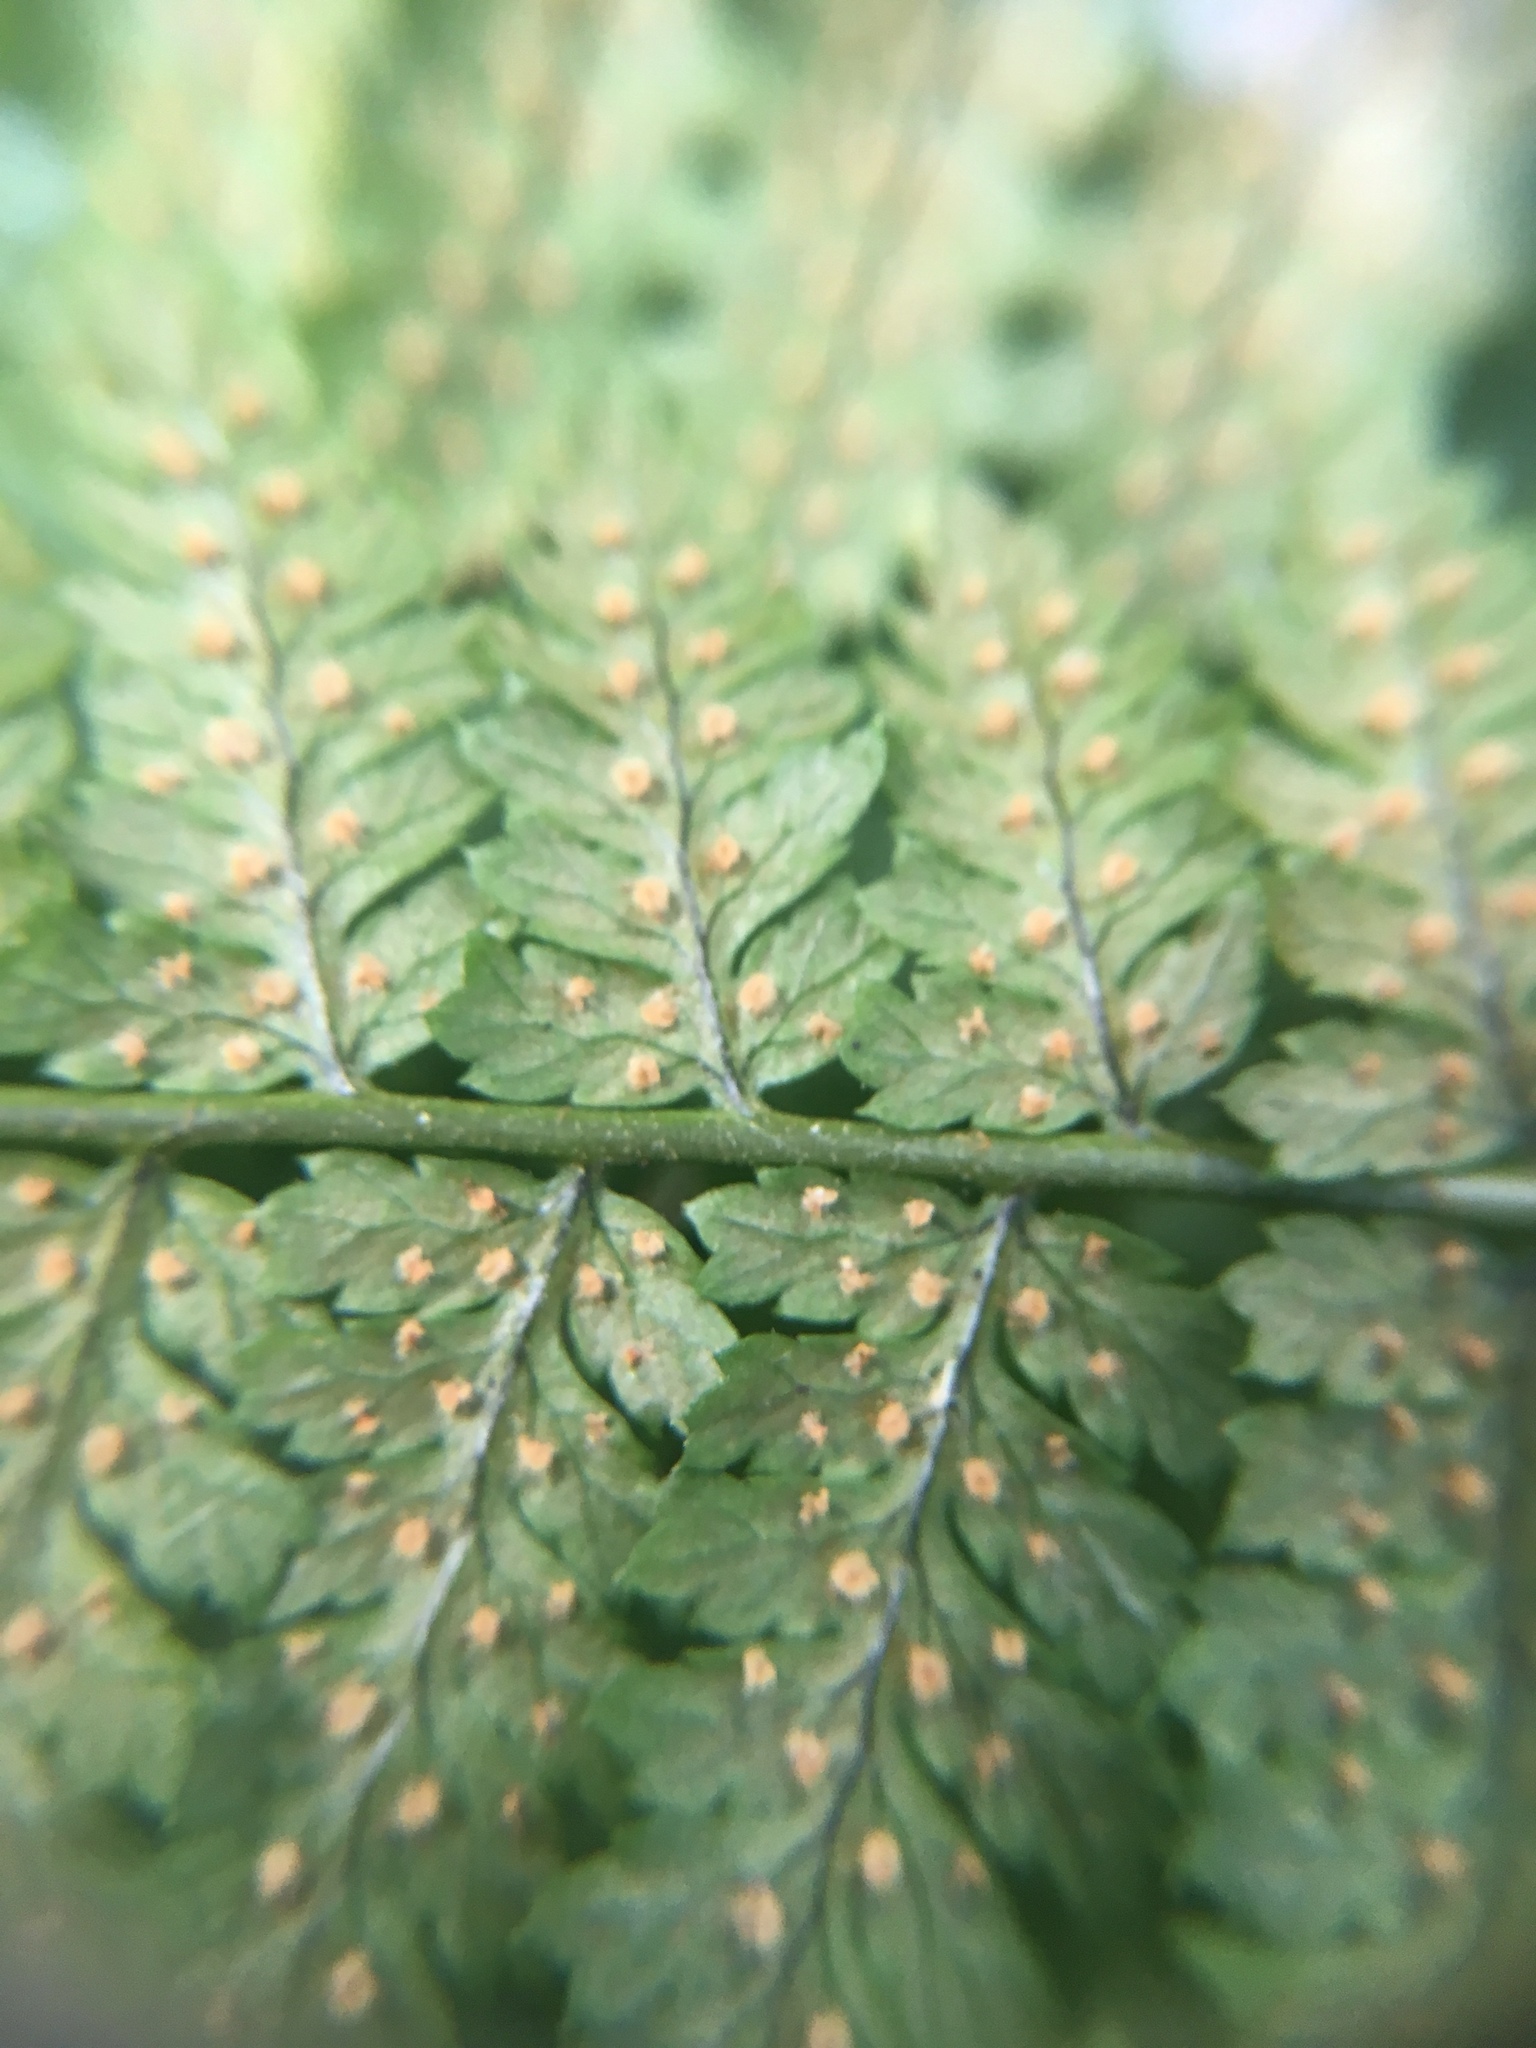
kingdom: Plantae
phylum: Tracheophyta
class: Polypodiopsida
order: Polypodiales
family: Dryopteridaceae
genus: Dryopteris
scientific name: Dryopteris intermedia
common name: Evergreen wood fern
